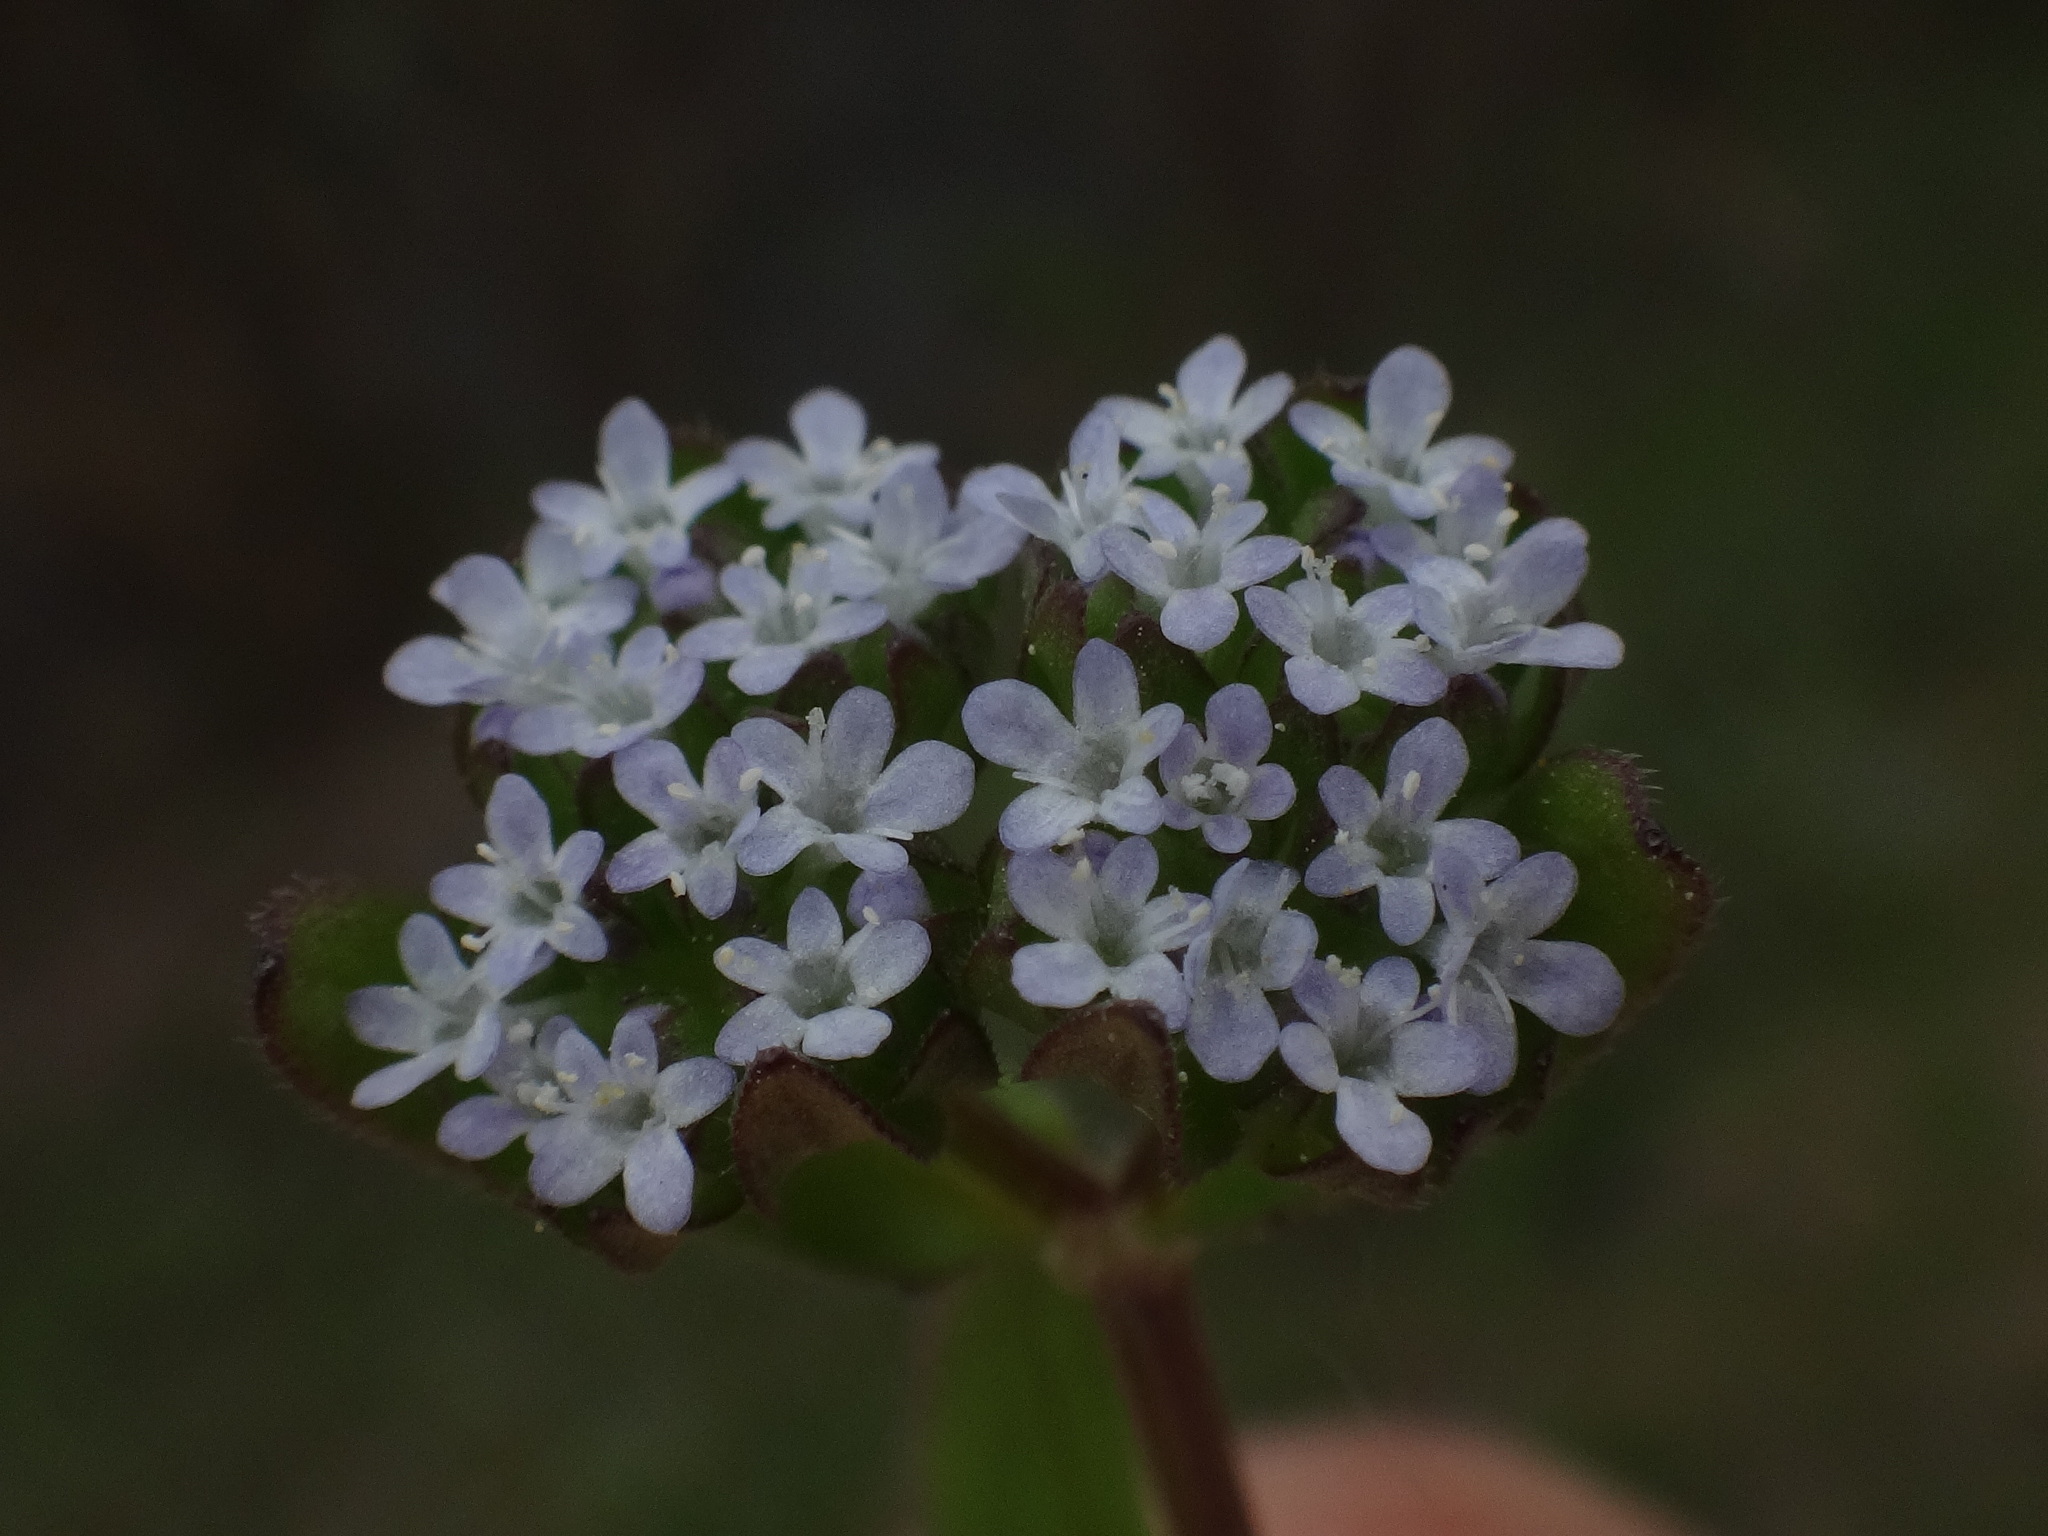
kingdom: Plantae
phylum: Tracheophyta
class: Magnoliopsida
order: Dipsacales
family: Caprifoliaceae
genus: Valerianella
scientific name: Valerianella locusta
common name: Common cornsalad
